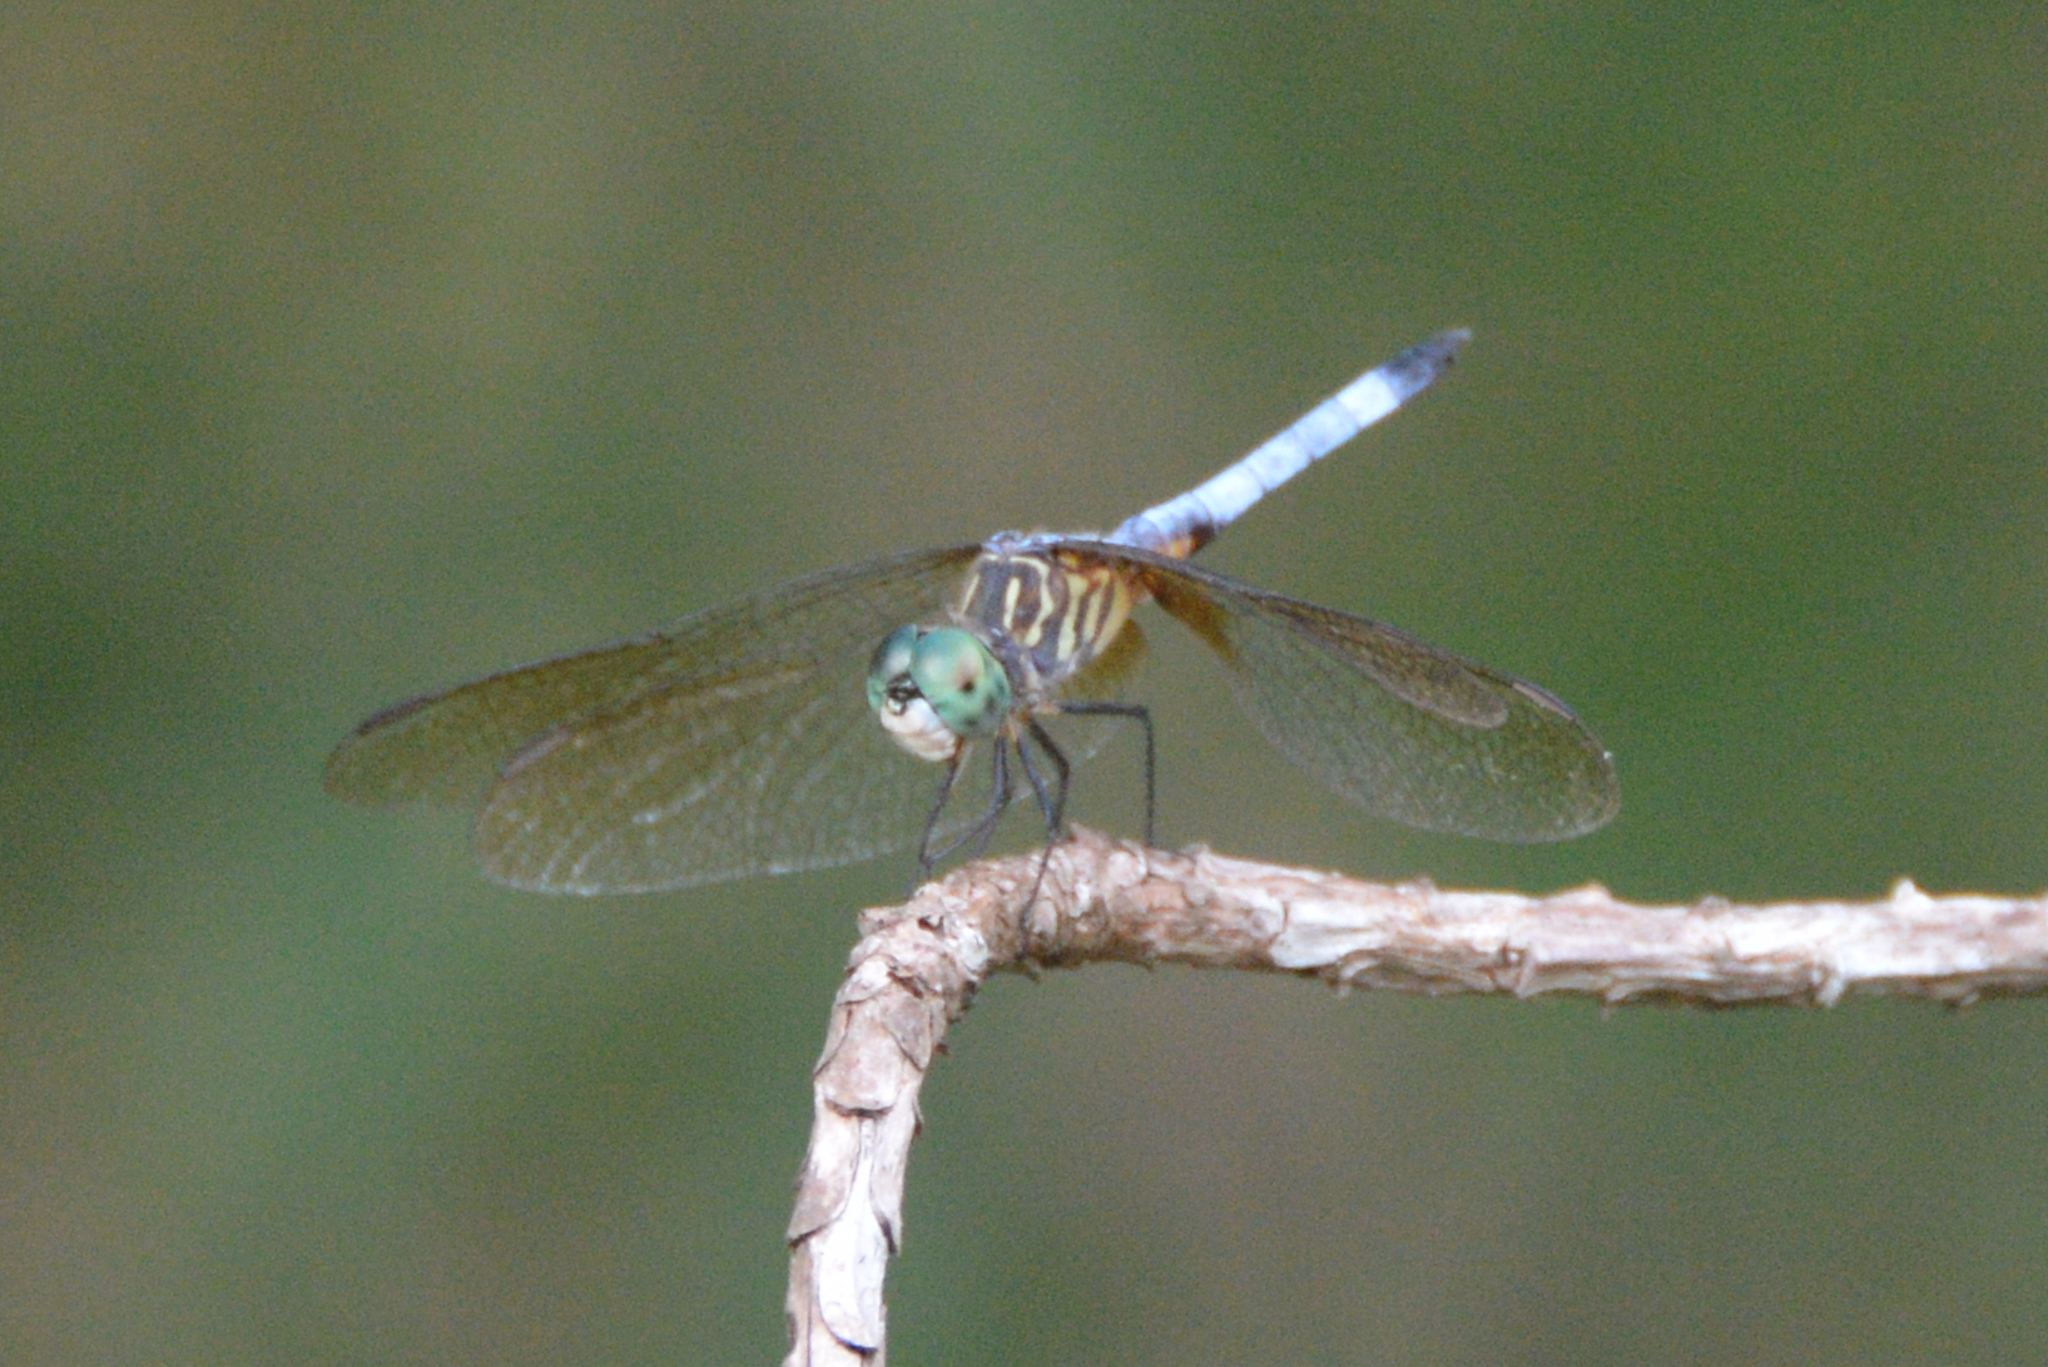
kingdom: Animalia
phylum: Arthropoda
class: Insecta
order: Odonata
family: Libellulidae
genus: Pachydiplax
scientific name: Pachydiplax longipennis
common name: Blue dasher
